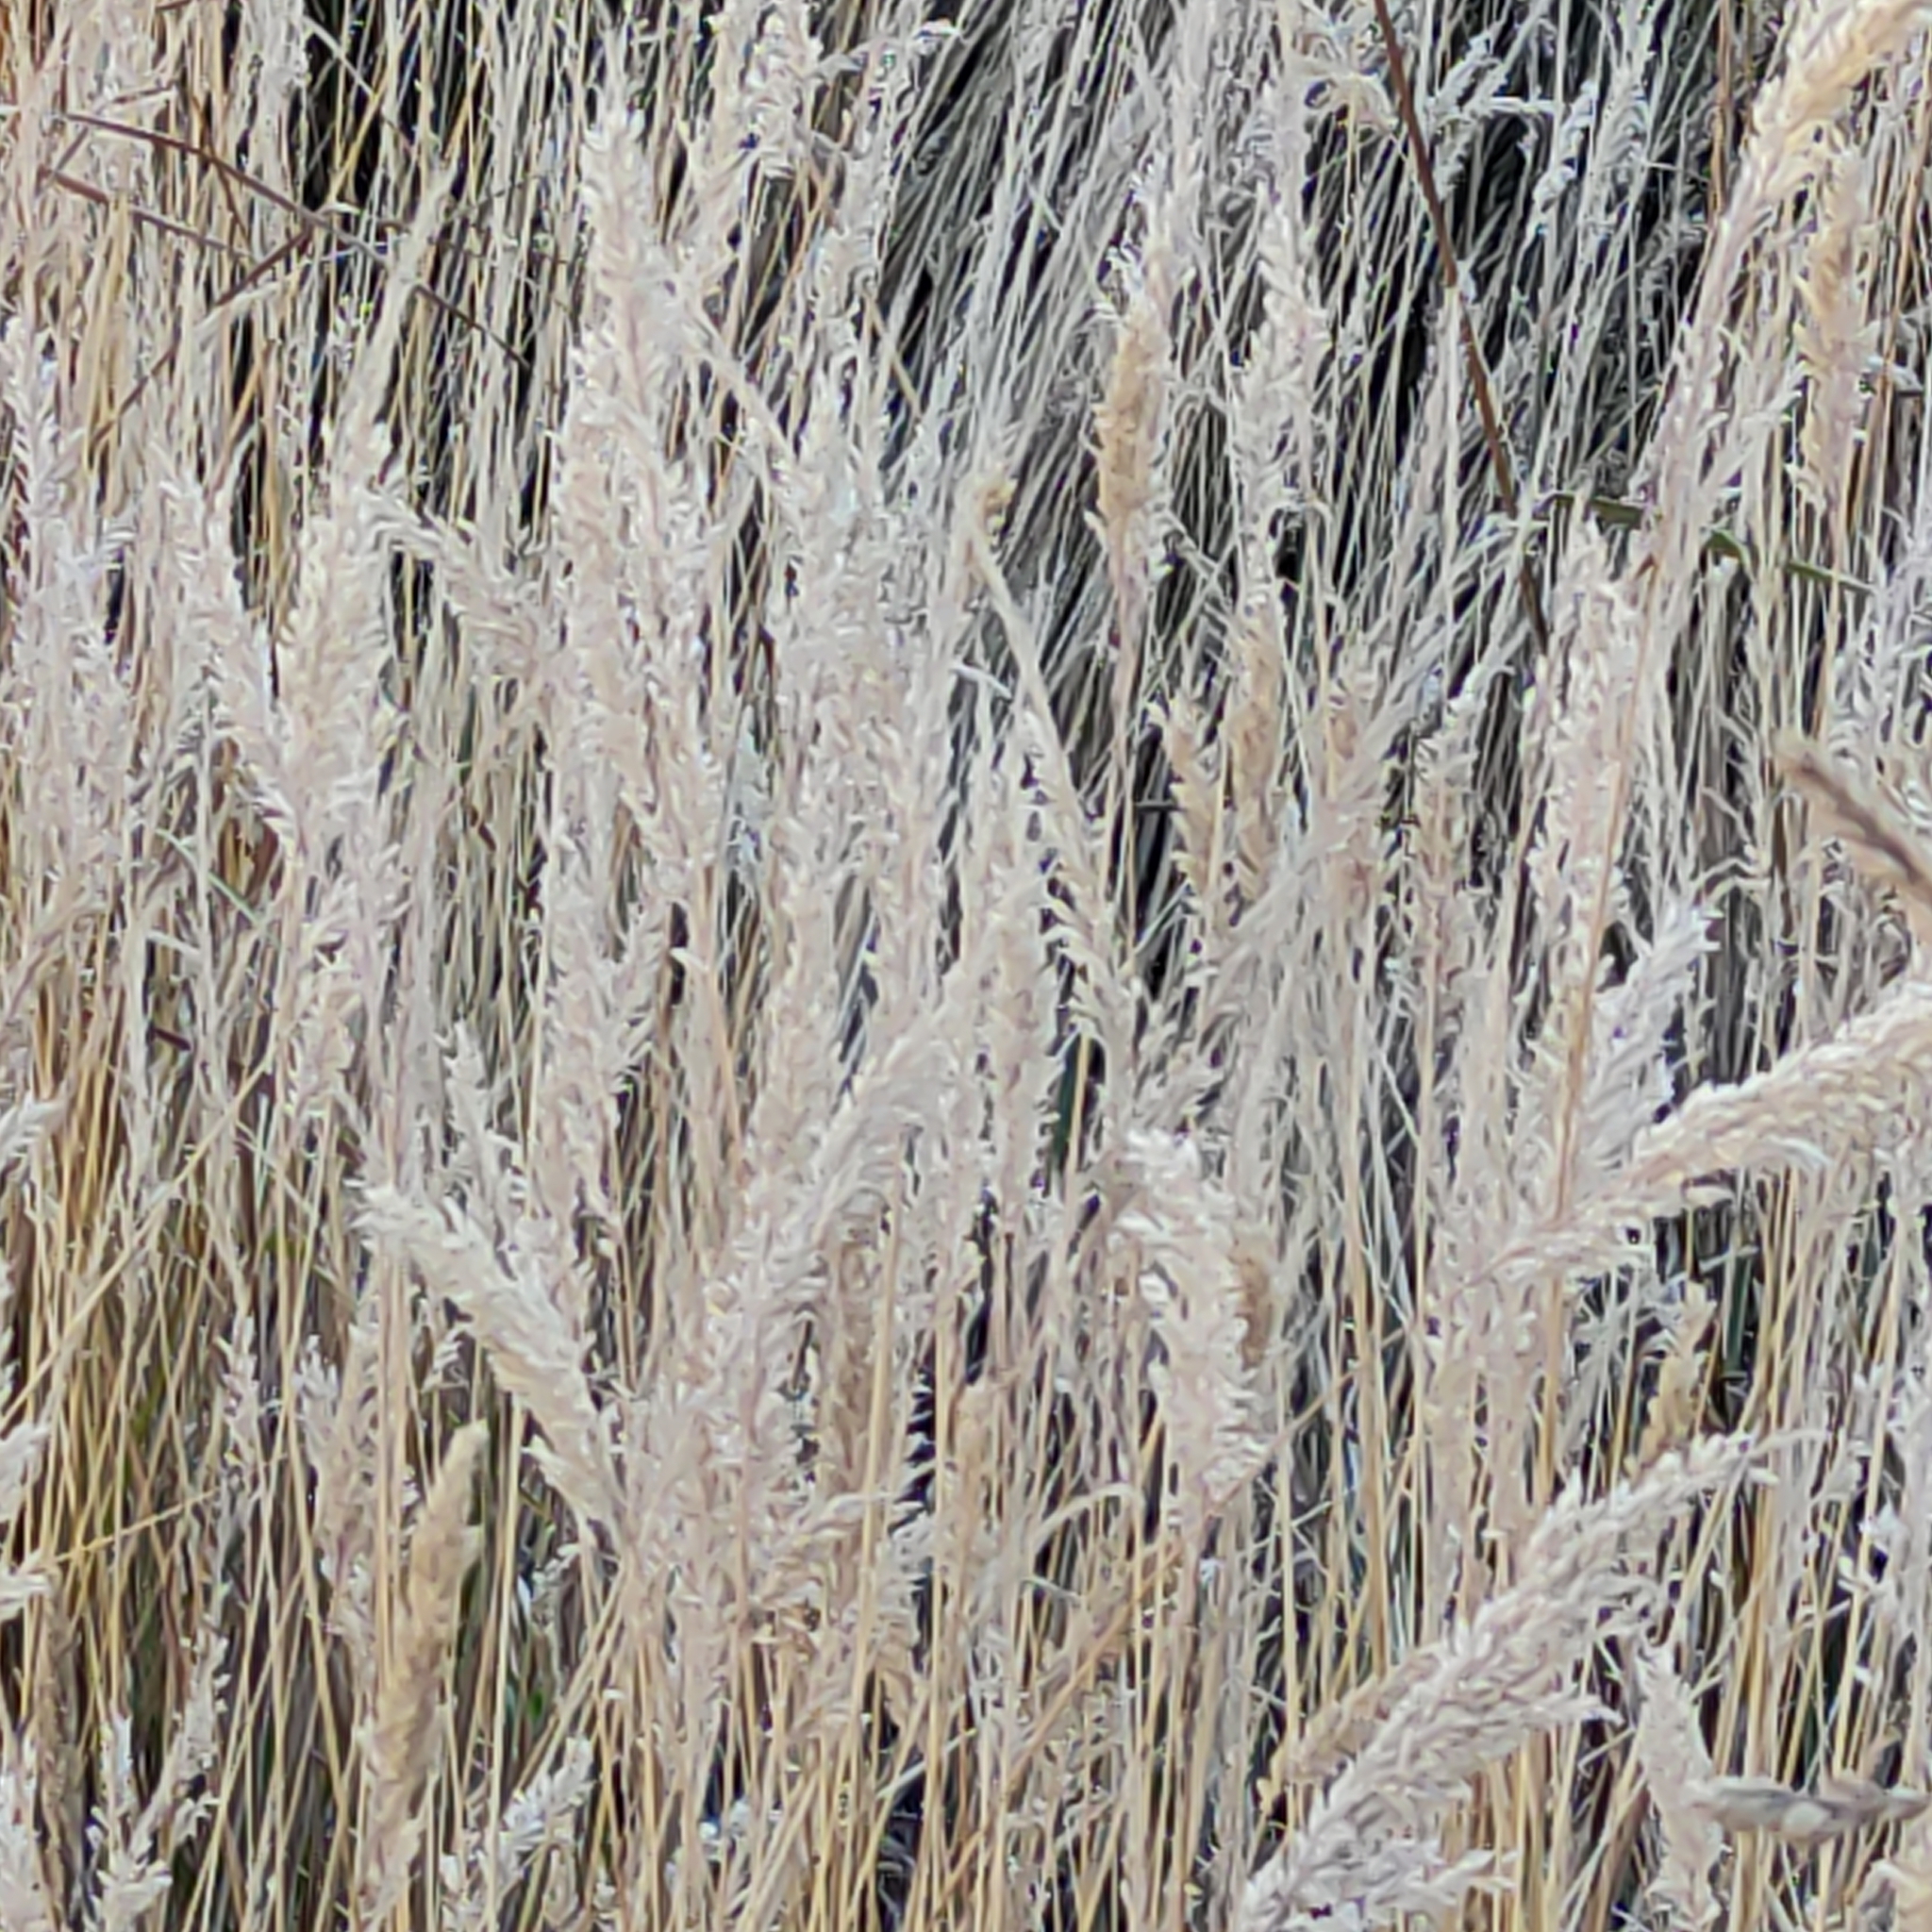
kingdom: Plantae
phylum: Tracheophyta
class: Liliopsida
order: Poales
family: Poaceae
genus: Holcus
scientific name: Holcus lanatus
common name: Yorkshire-fog
